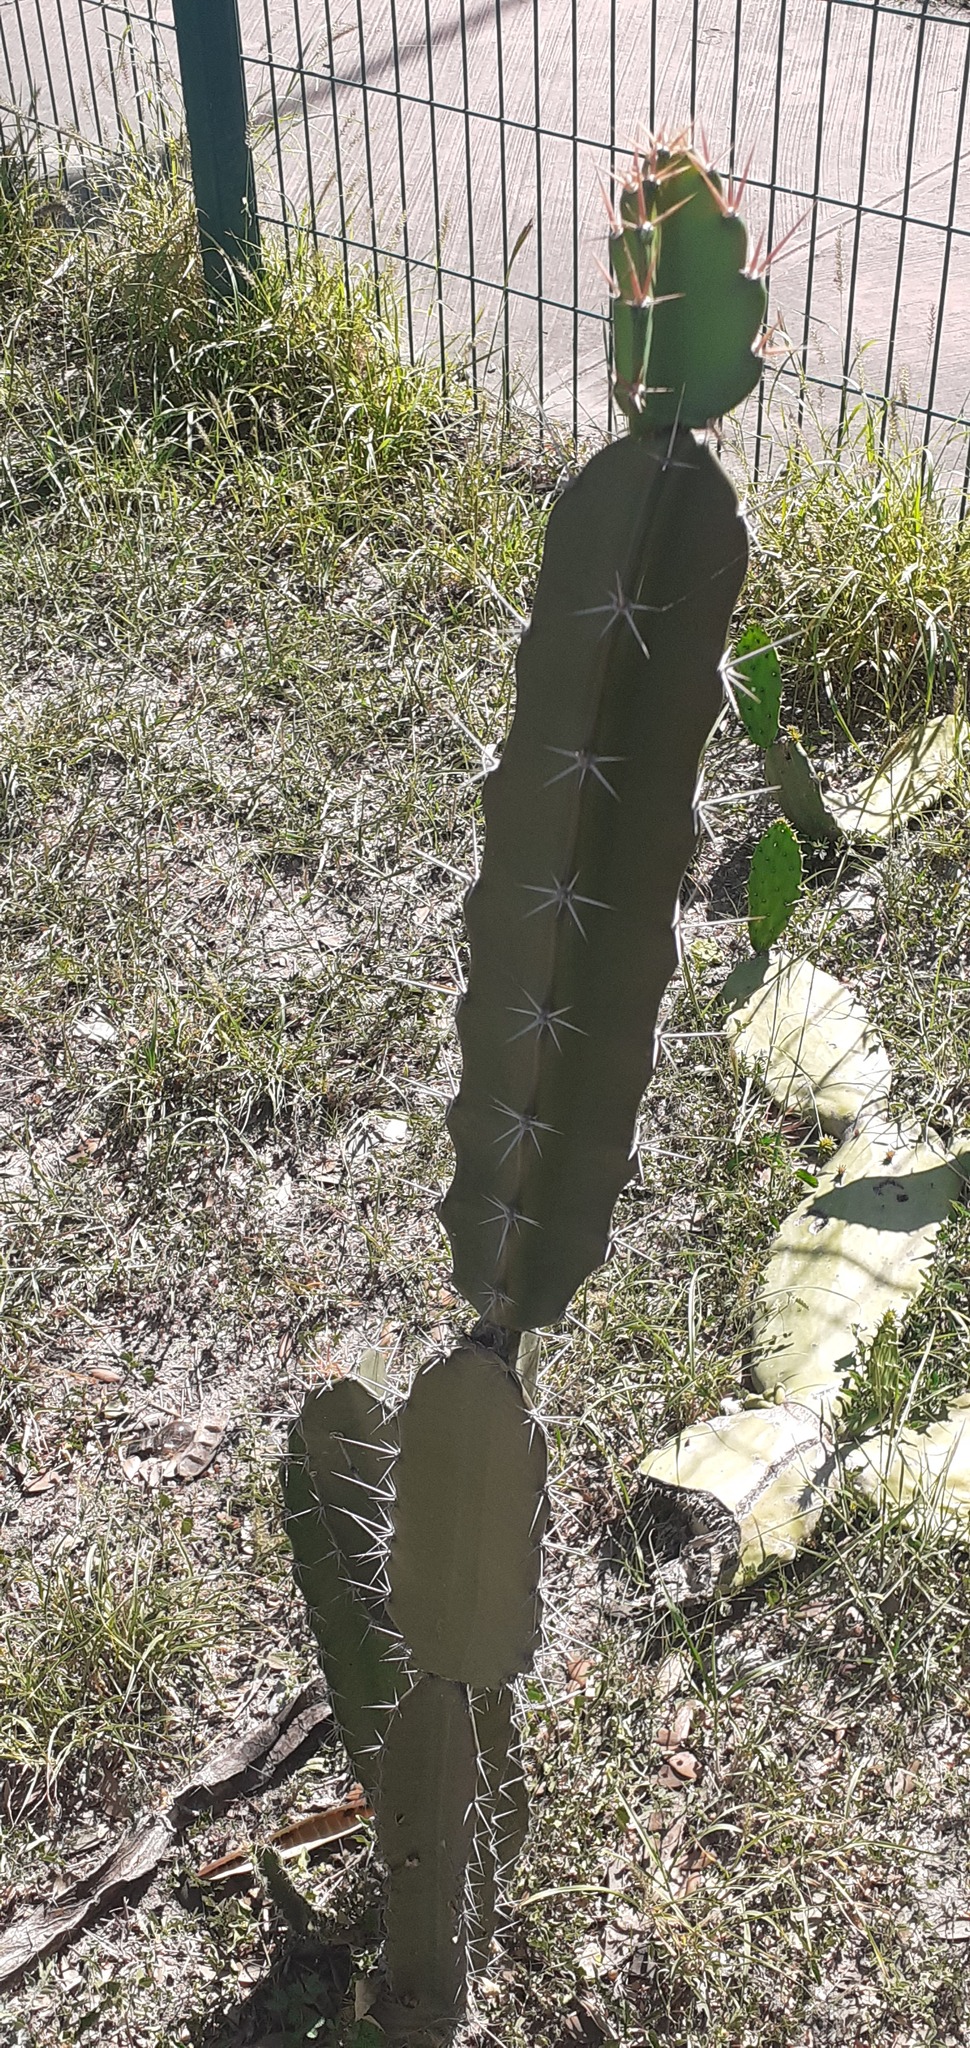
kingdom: Plantae
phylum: Tracheophyta
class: Magnoliopsida
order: Caryophyllales
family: Cactaceae
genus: Acanthocereus
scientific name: Acanthocereus tetragonus
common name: Triangle cactus
